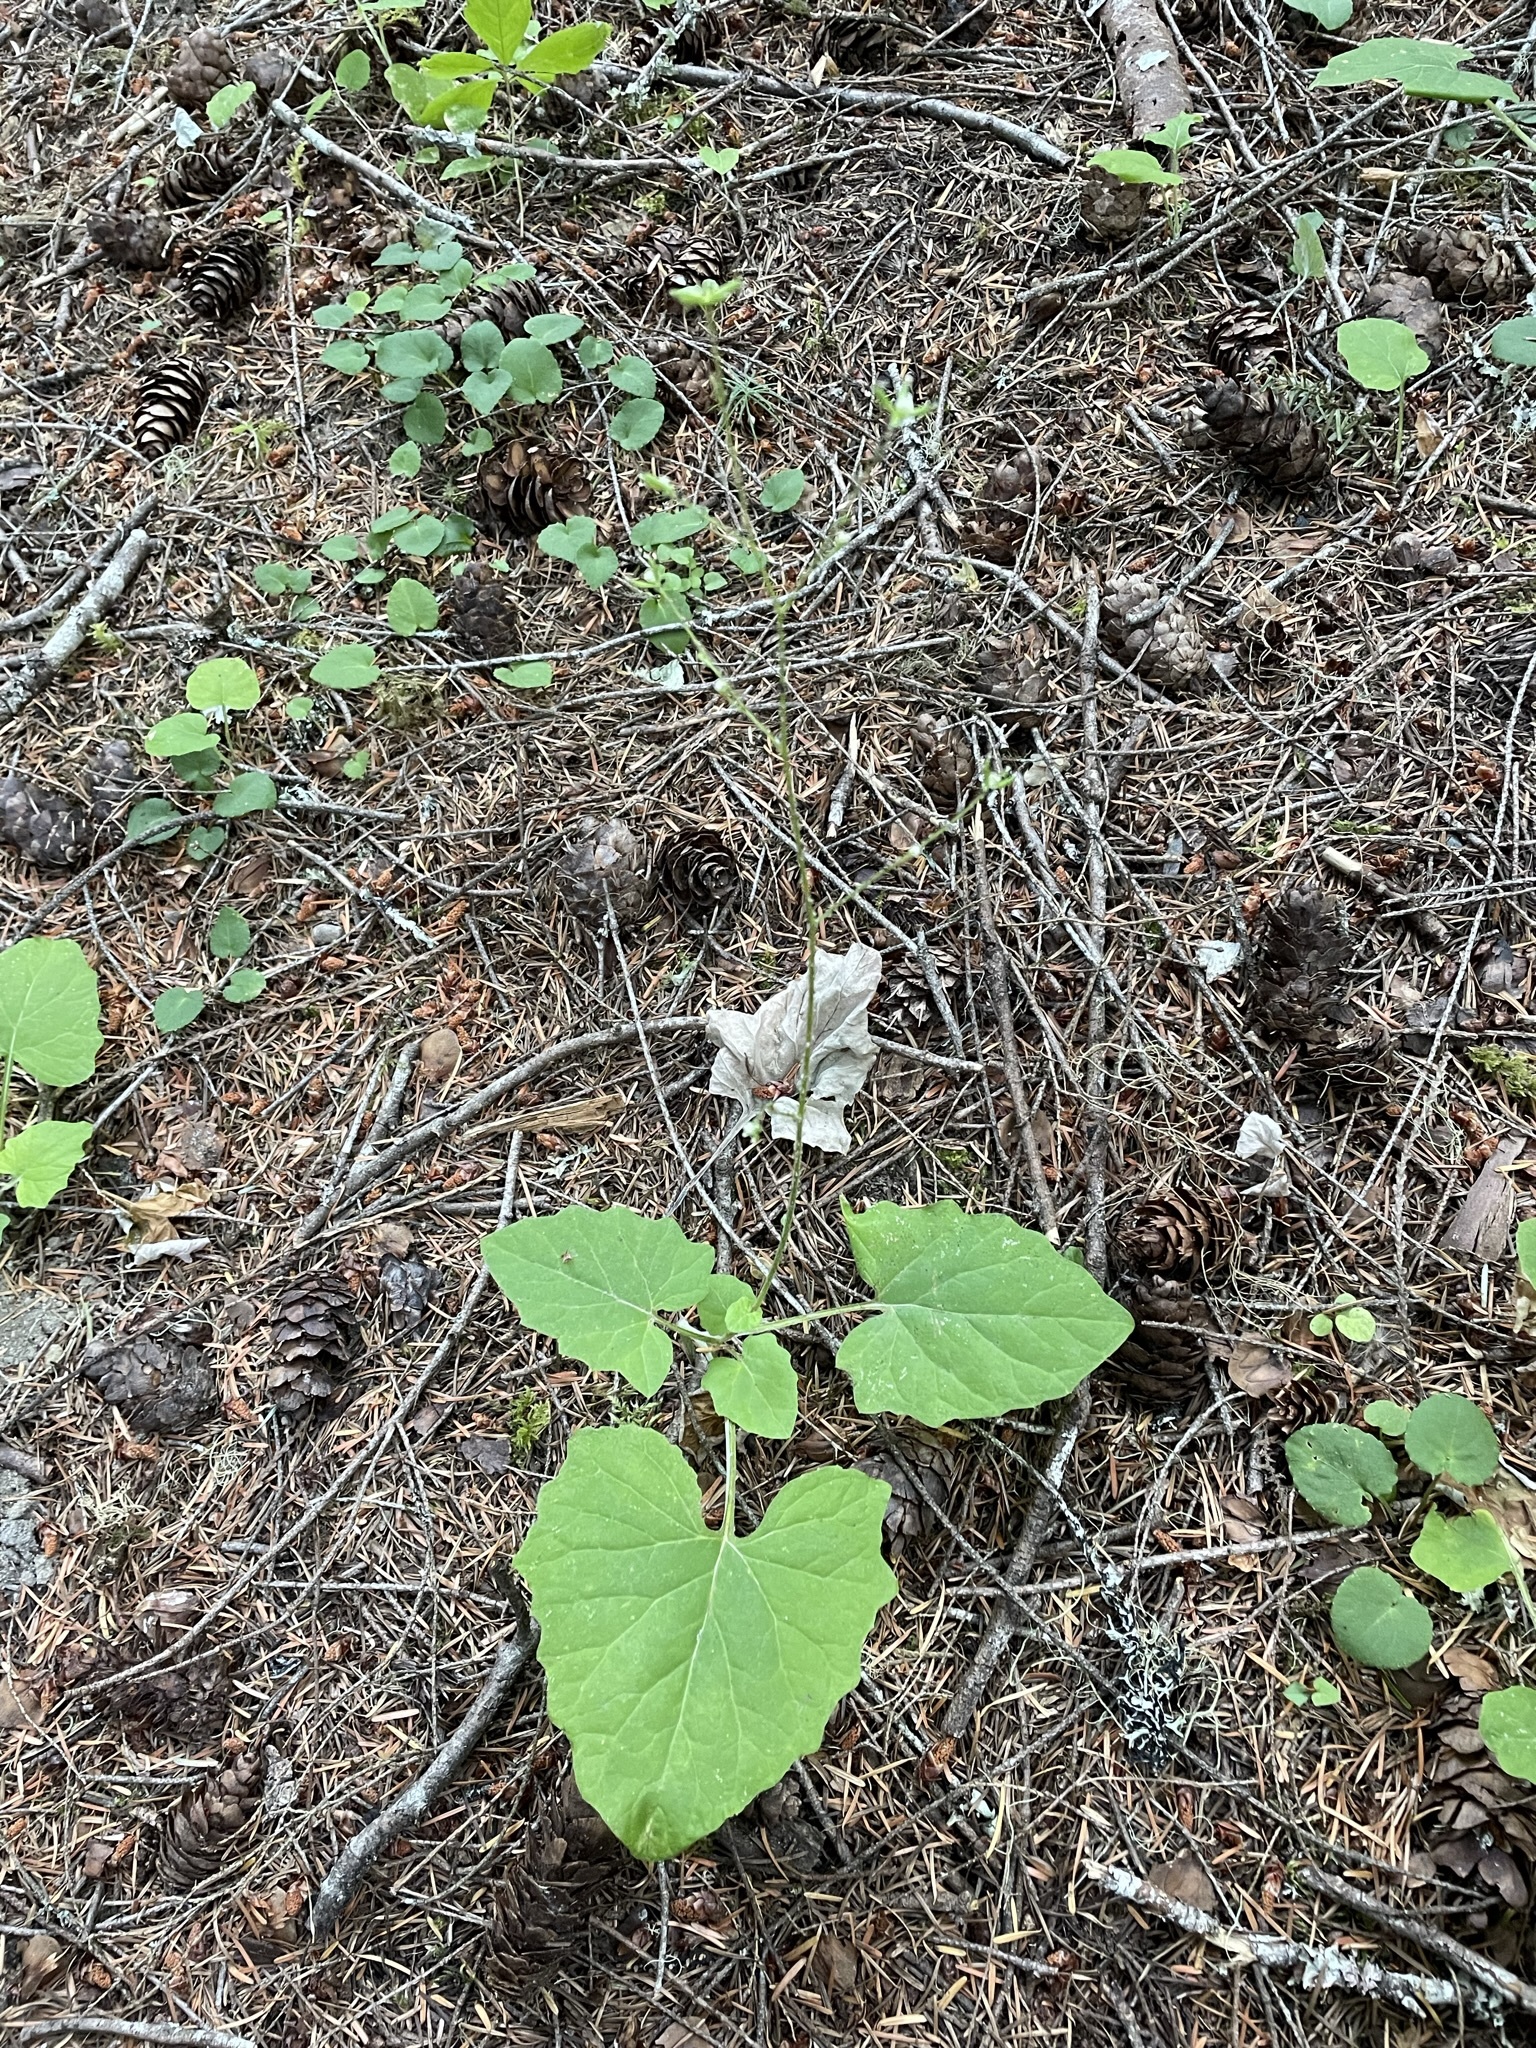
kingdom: Plantae
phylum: Tracheophyta
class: Magnoliopsida
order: Asterales
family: Asteraceae
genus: Adenocaulon
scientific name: Adenocaulon bicolor
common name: Trailplant
